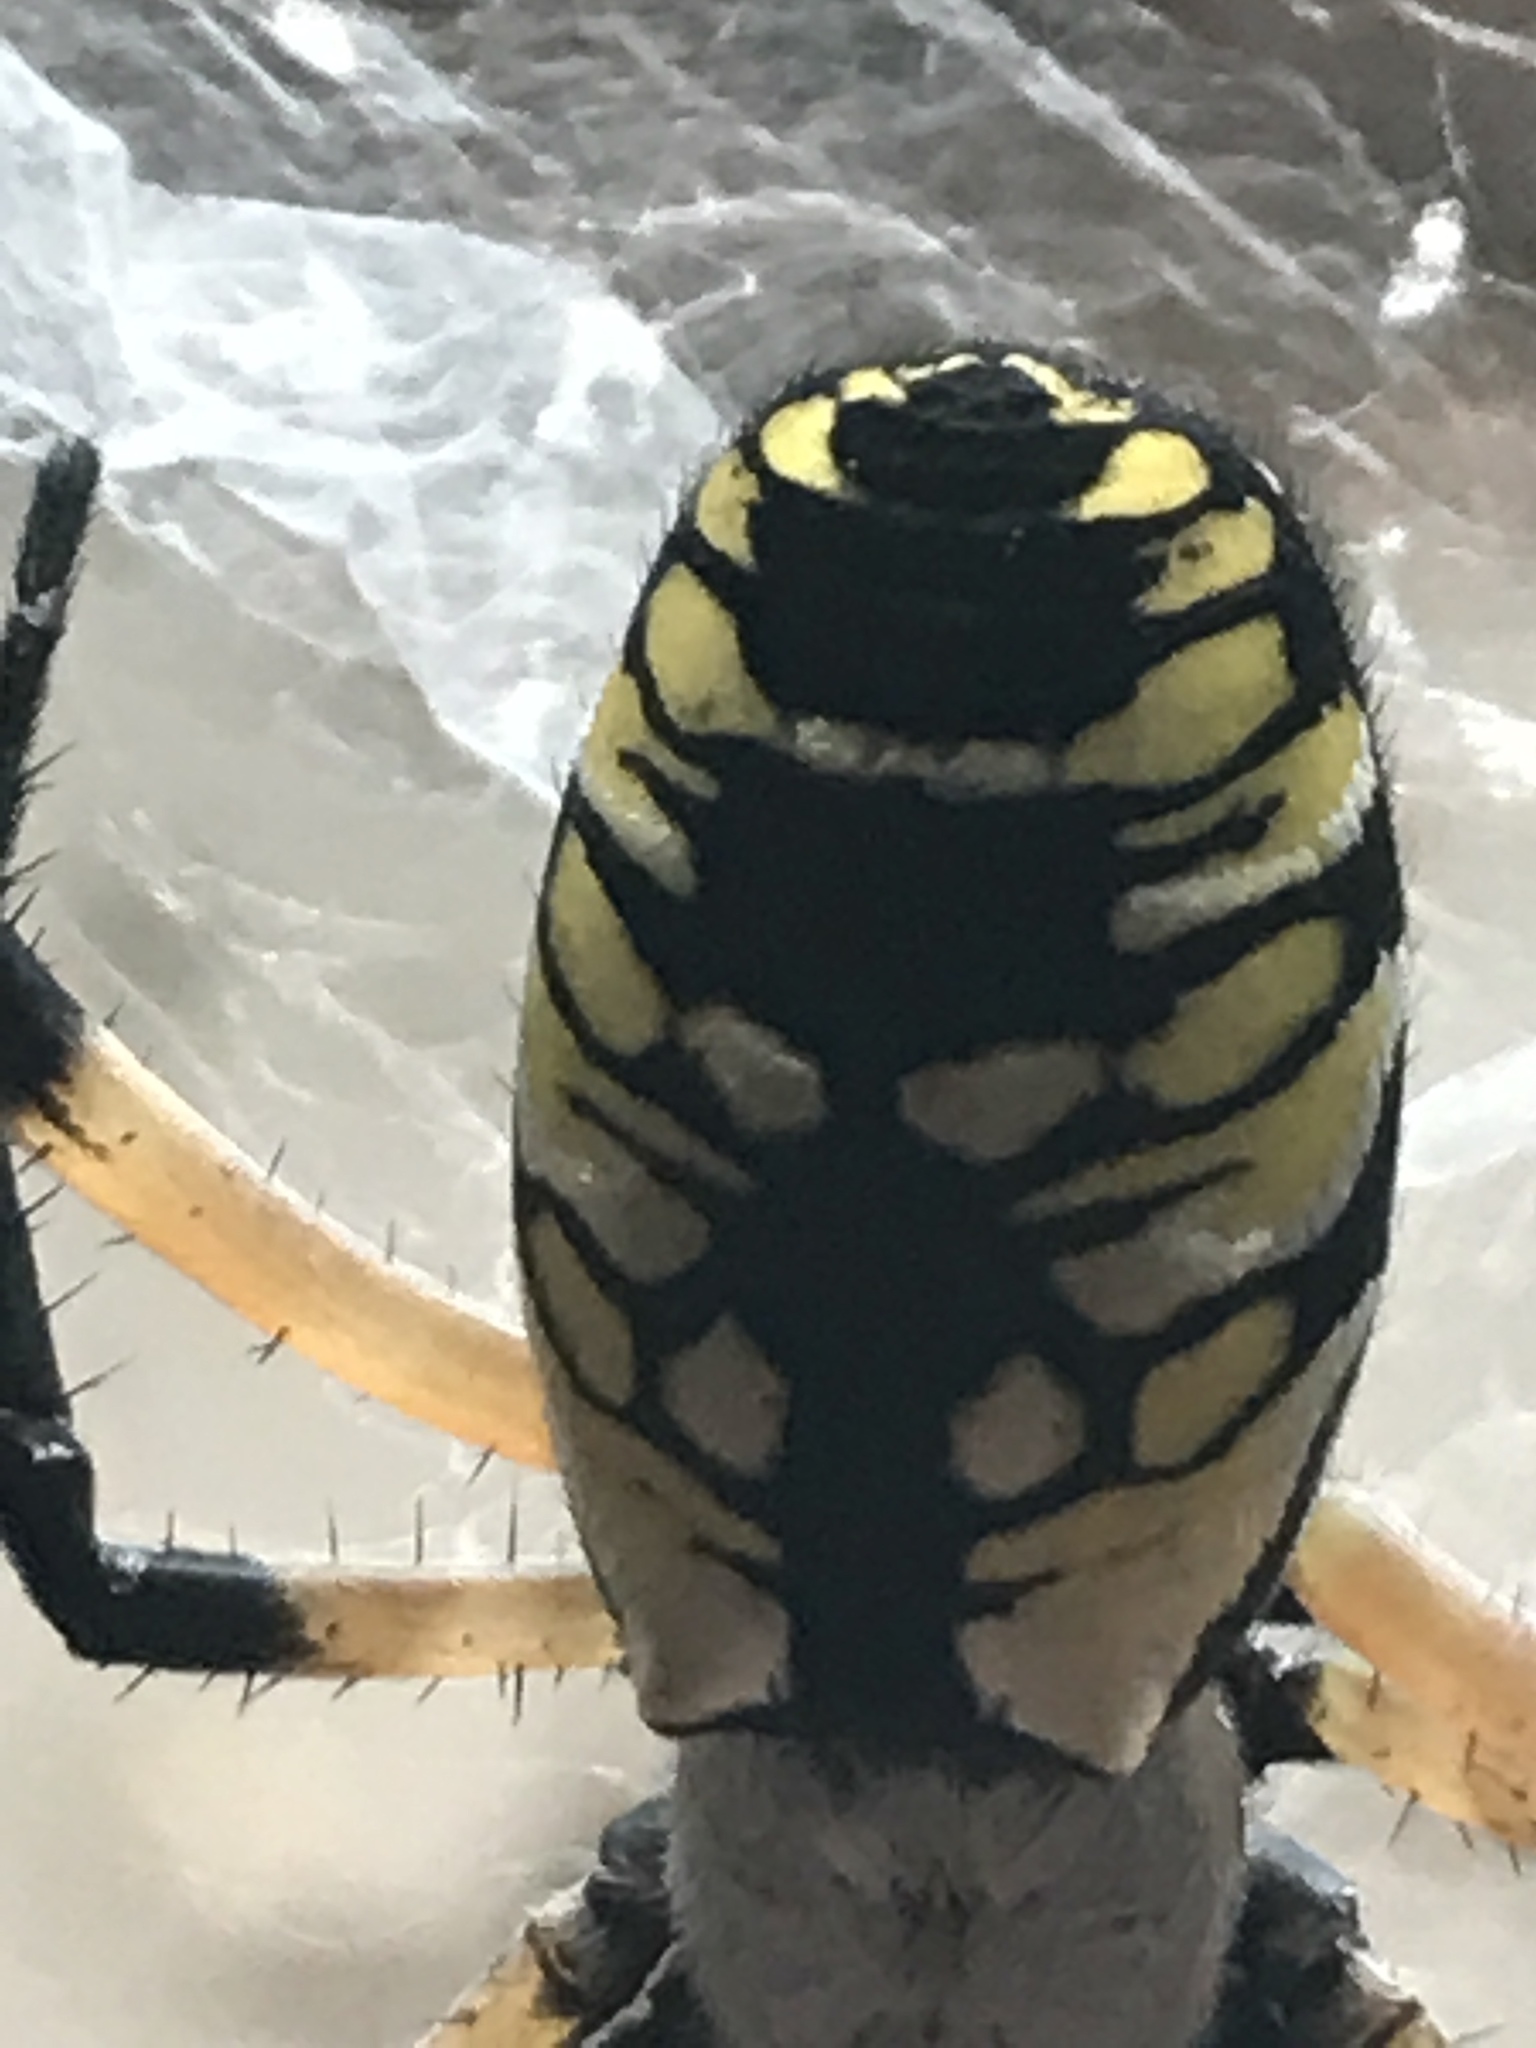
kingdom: Animalia
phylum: Arthropoda
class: Arachnida
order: Araneae
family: Araneidae
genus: Argiope
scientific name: Argiope aurantia
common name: Orb weavers
